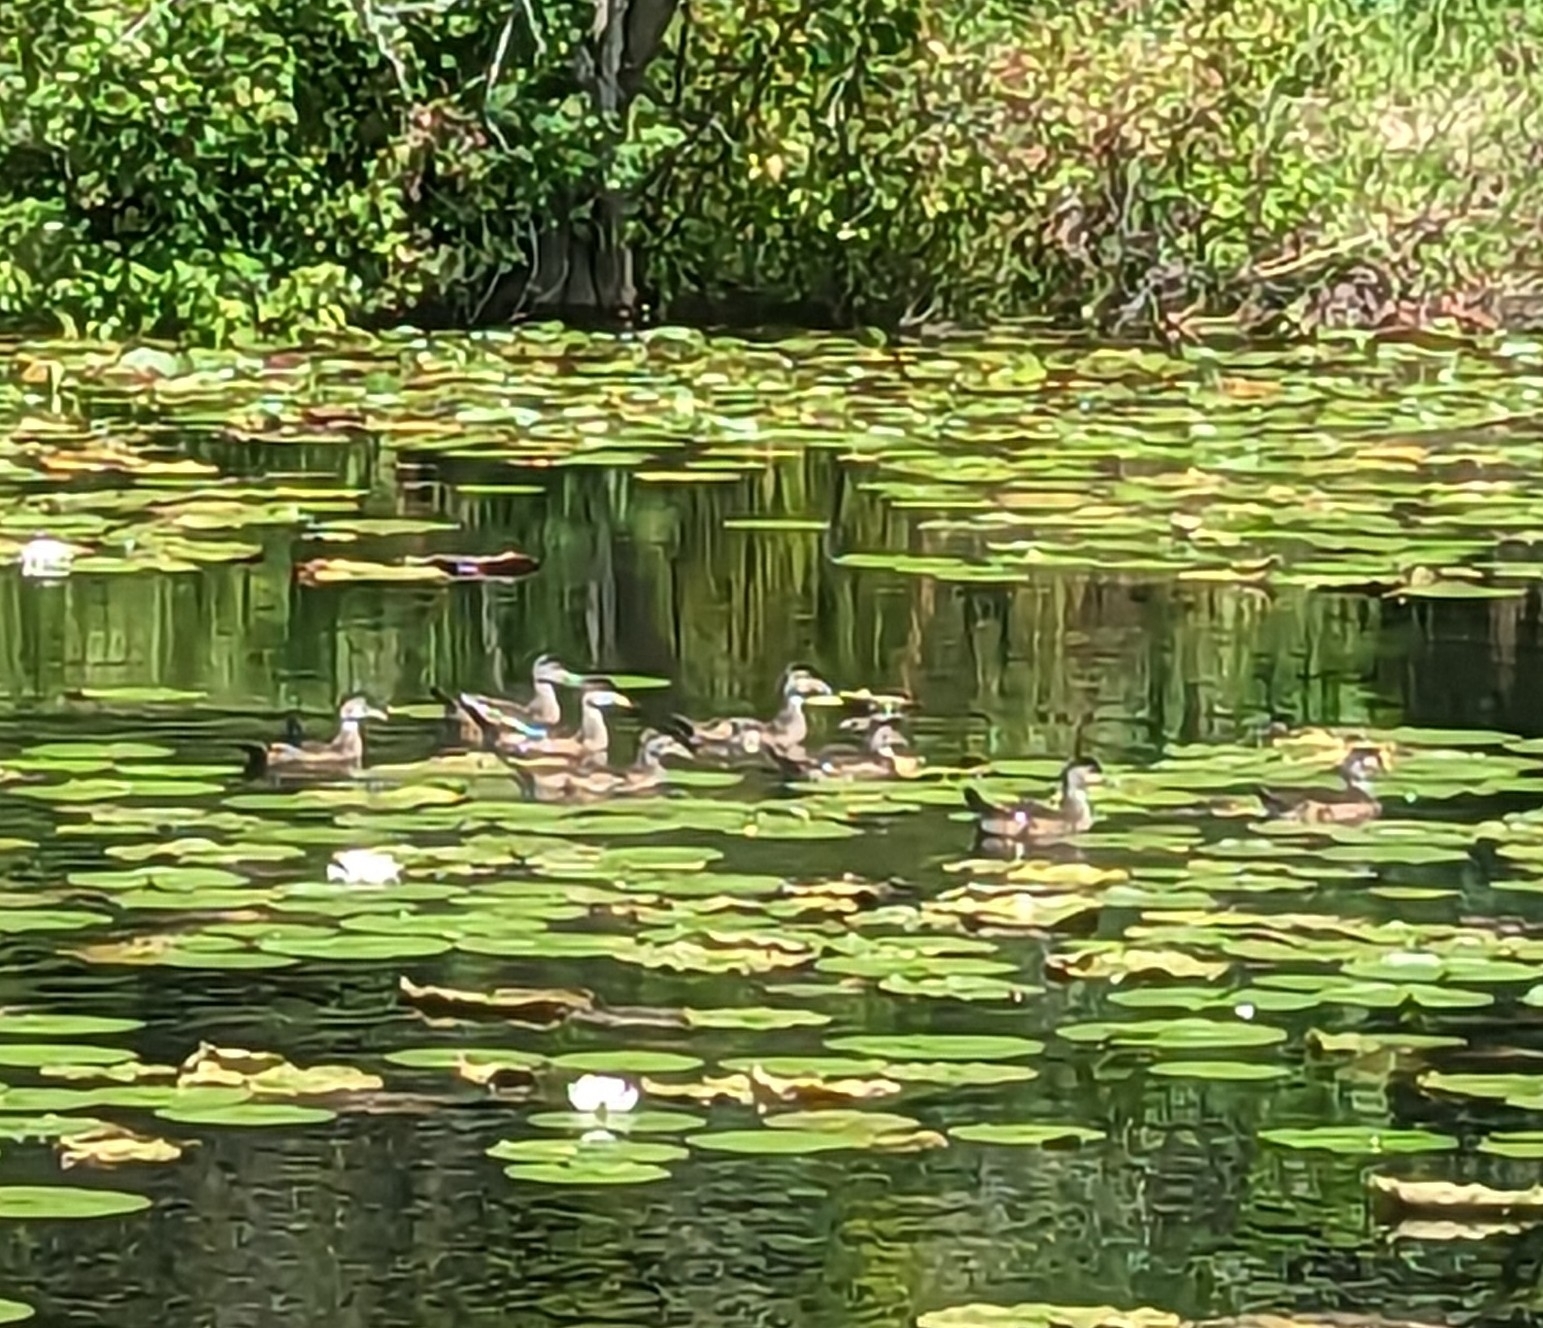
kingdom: Animalia
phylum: Chordata
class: Aves
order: Anseriformes
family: Anatidae
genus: Aix
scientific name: Aix sponsa
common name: Wood duck
